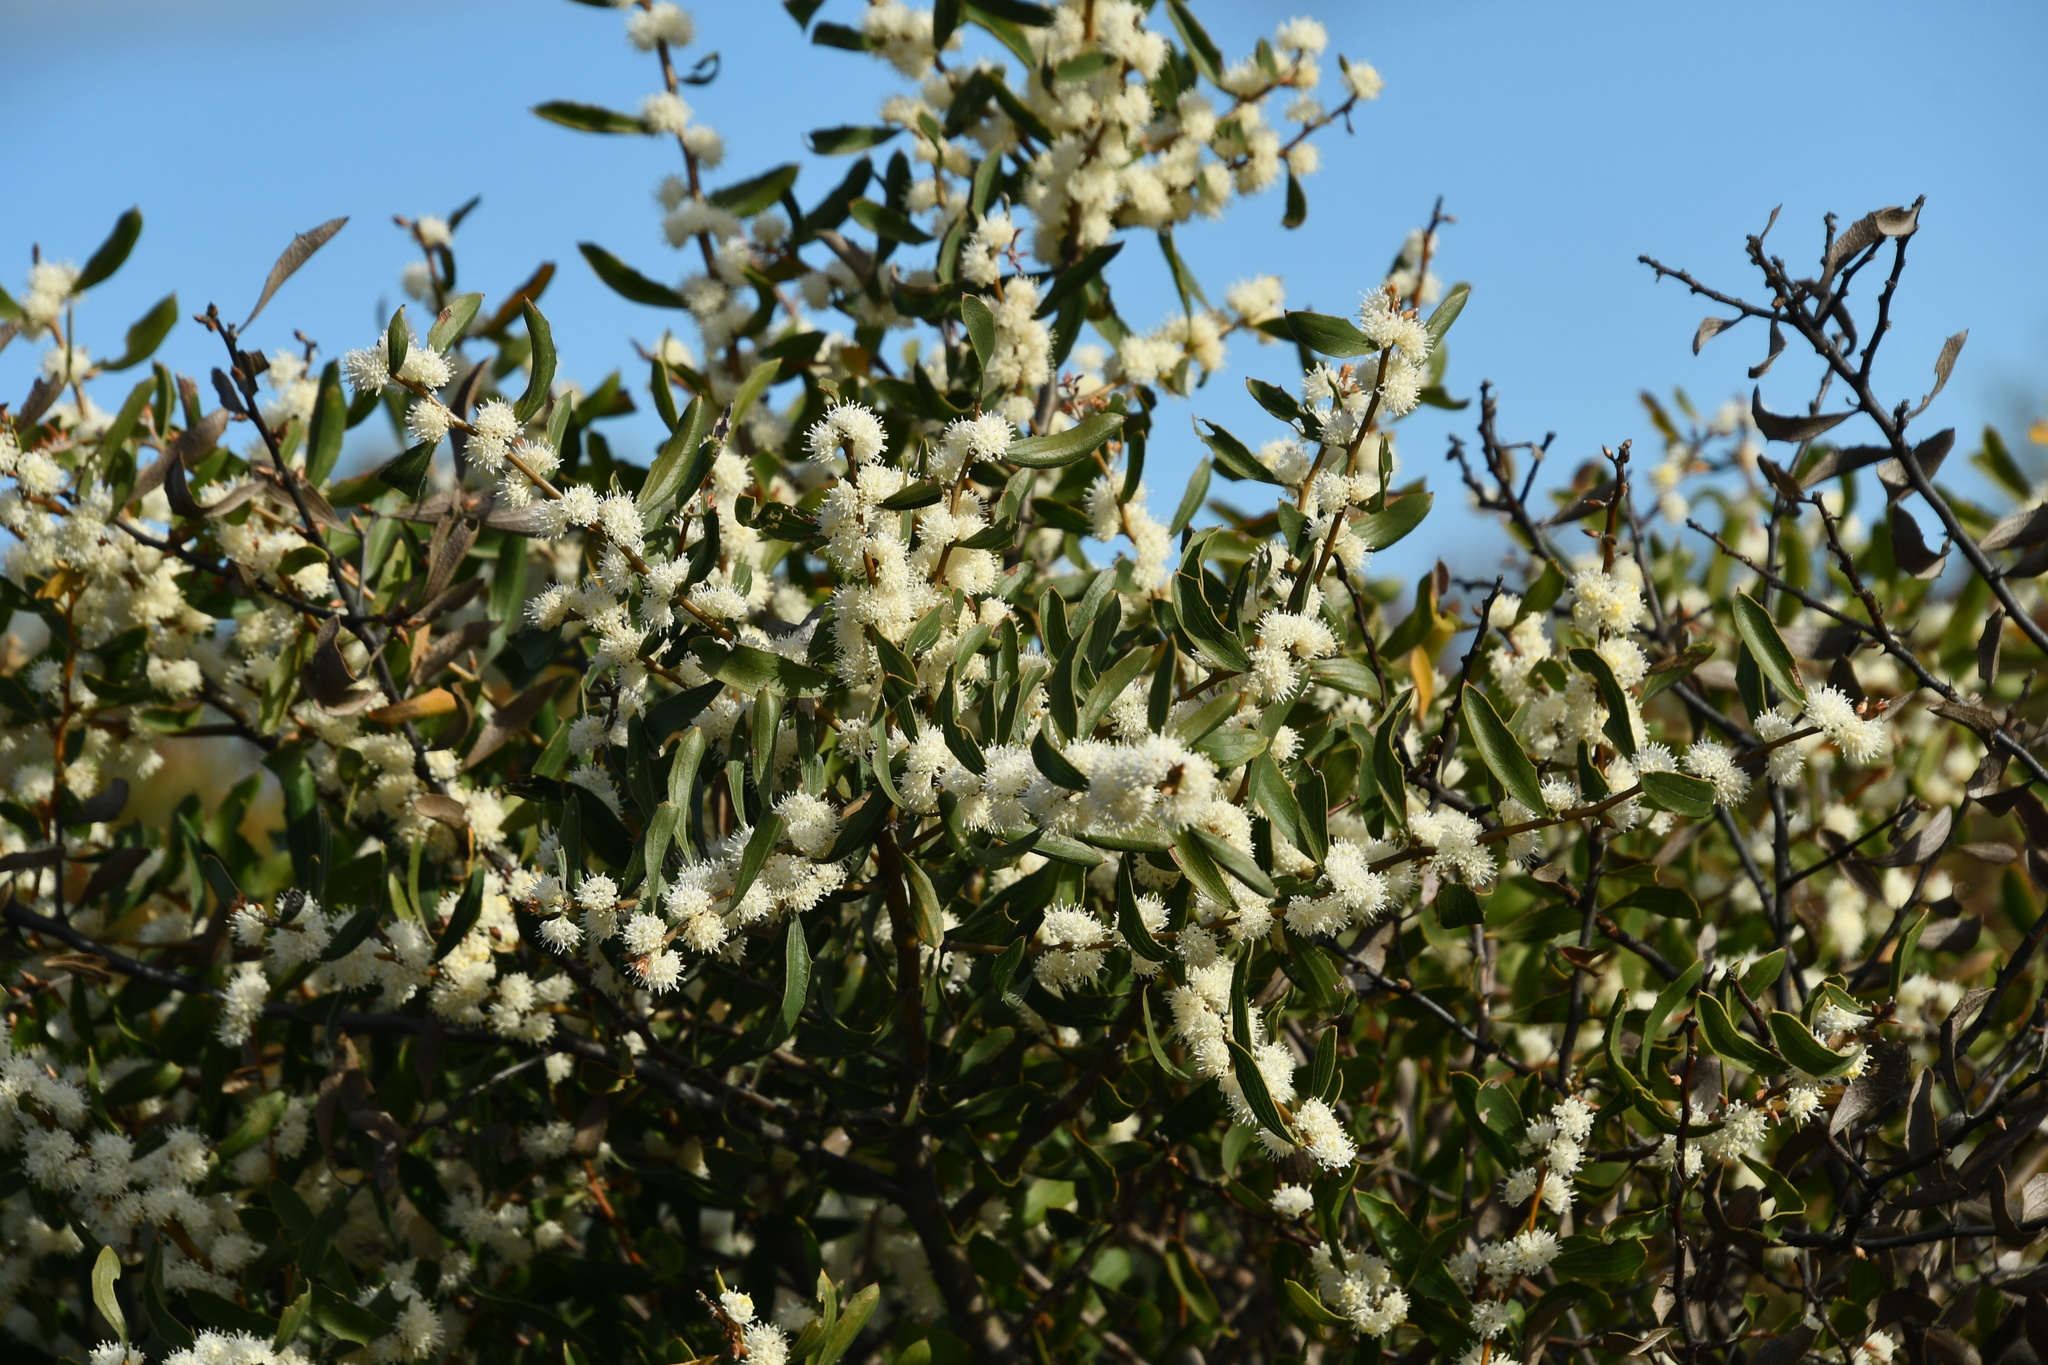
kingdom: Plantae
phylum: Tracheophyta
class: Magnoliopsida
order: Proteales
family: Proteaceae
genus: Hakea
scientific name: Hakea anadenia
